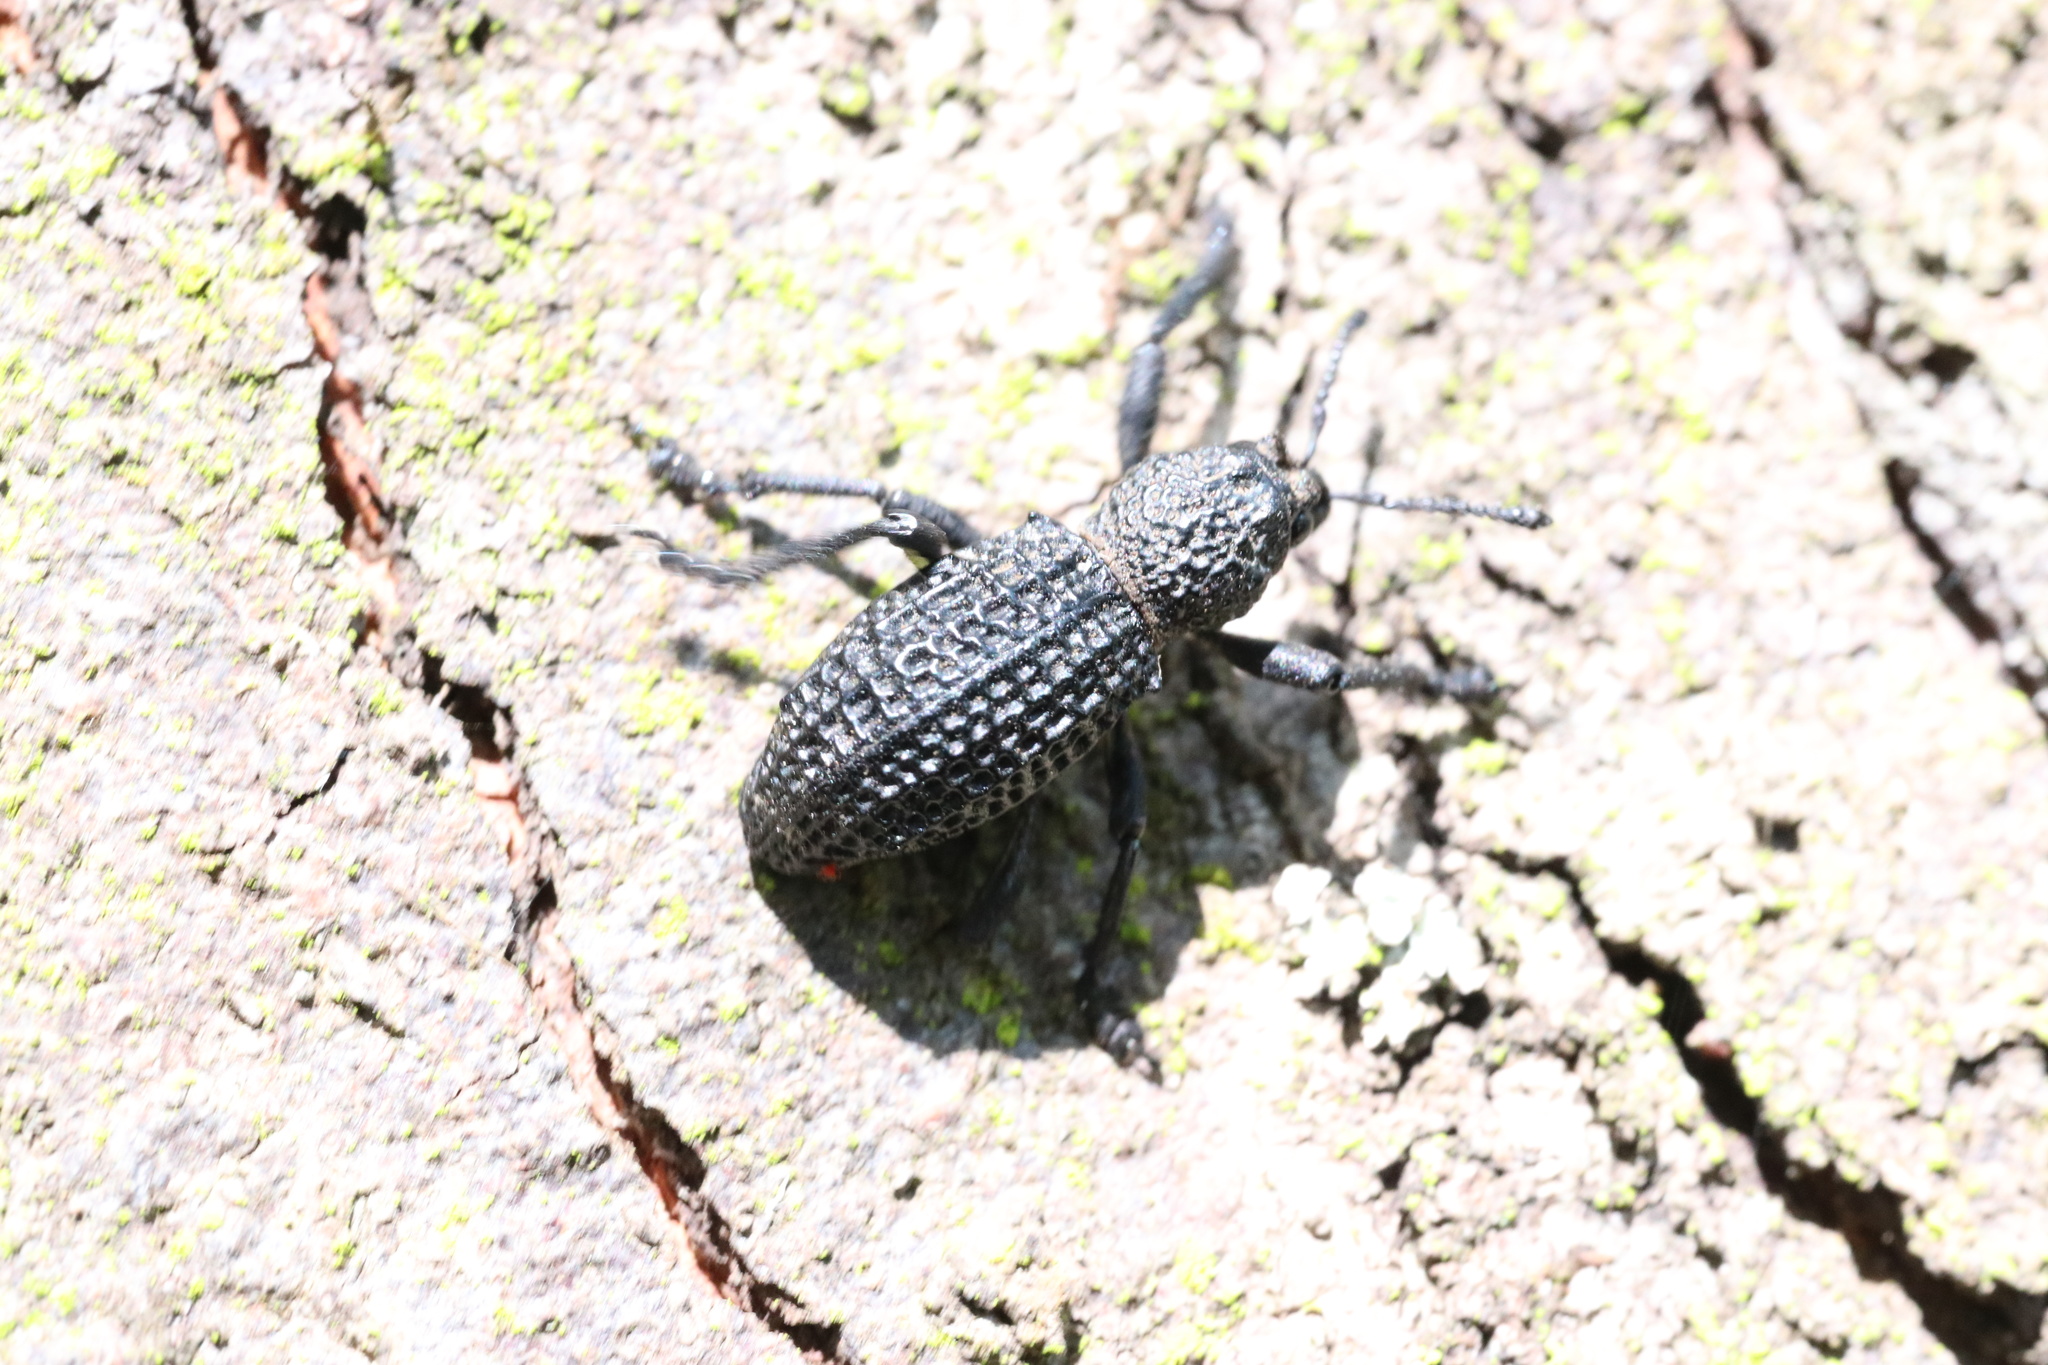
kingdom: Animalia
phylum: Arthropoda
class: Insecta
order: Coleoptera
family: Curculionidae
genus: Aegorhinus
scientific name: Aegorhinus superciliosus
